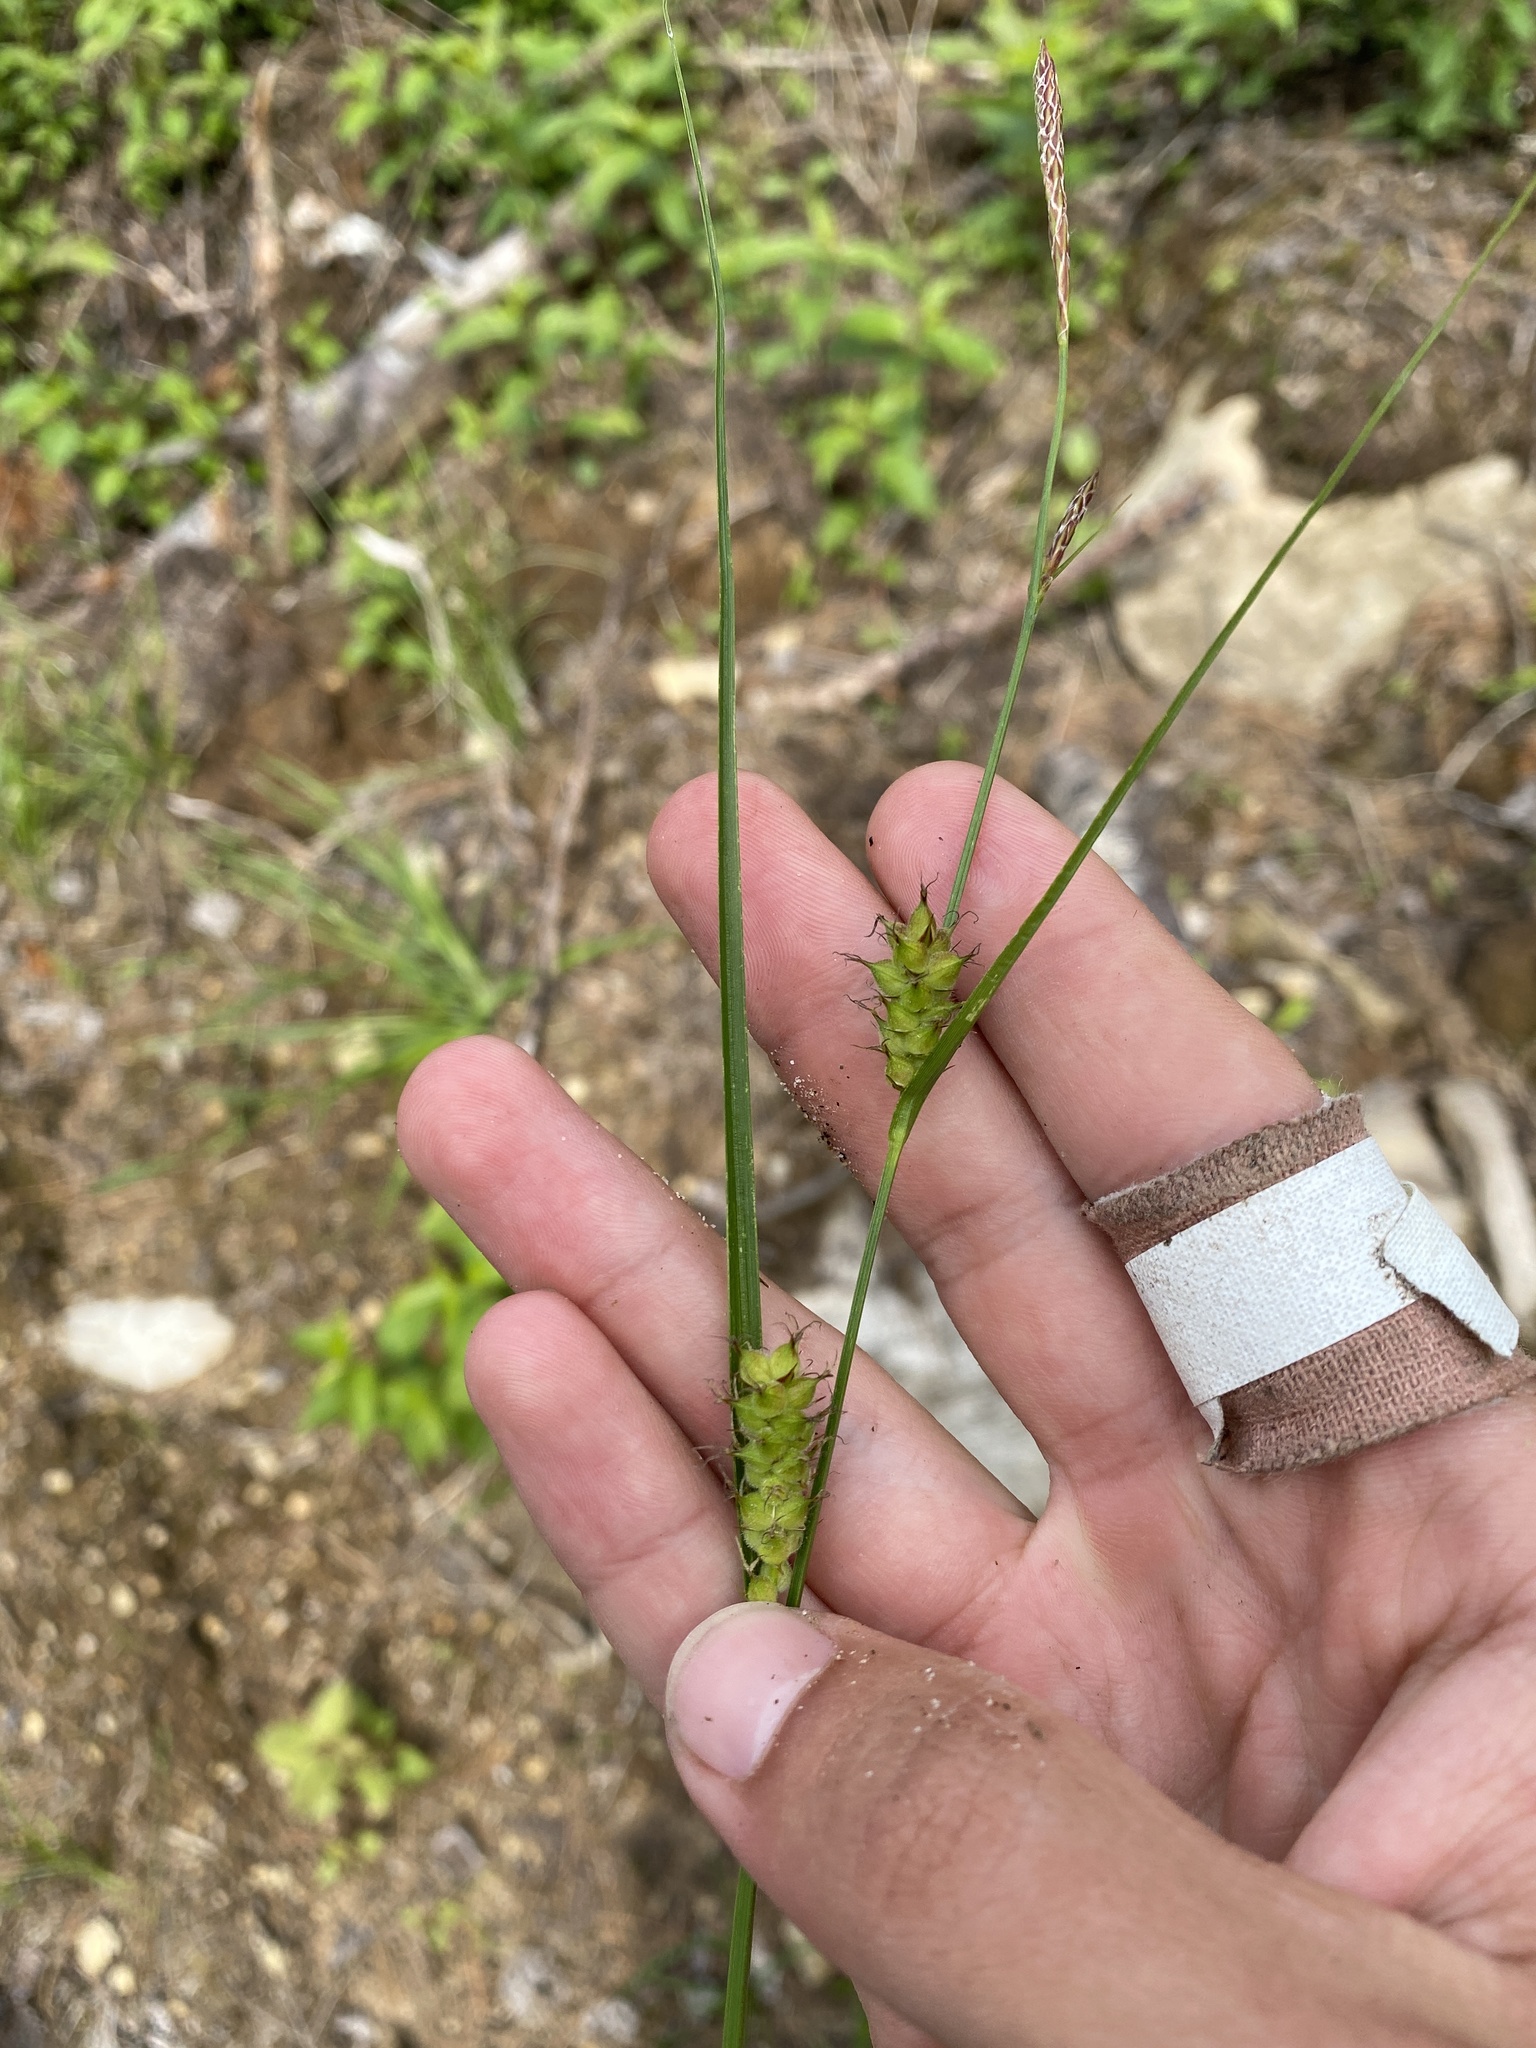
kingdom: Plantae
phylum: Tracheophyta
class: Liliopsida
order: Poales
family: Cyperaceae
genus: Carex
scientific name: Carex houghtoniana
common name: Houghton's sedge
